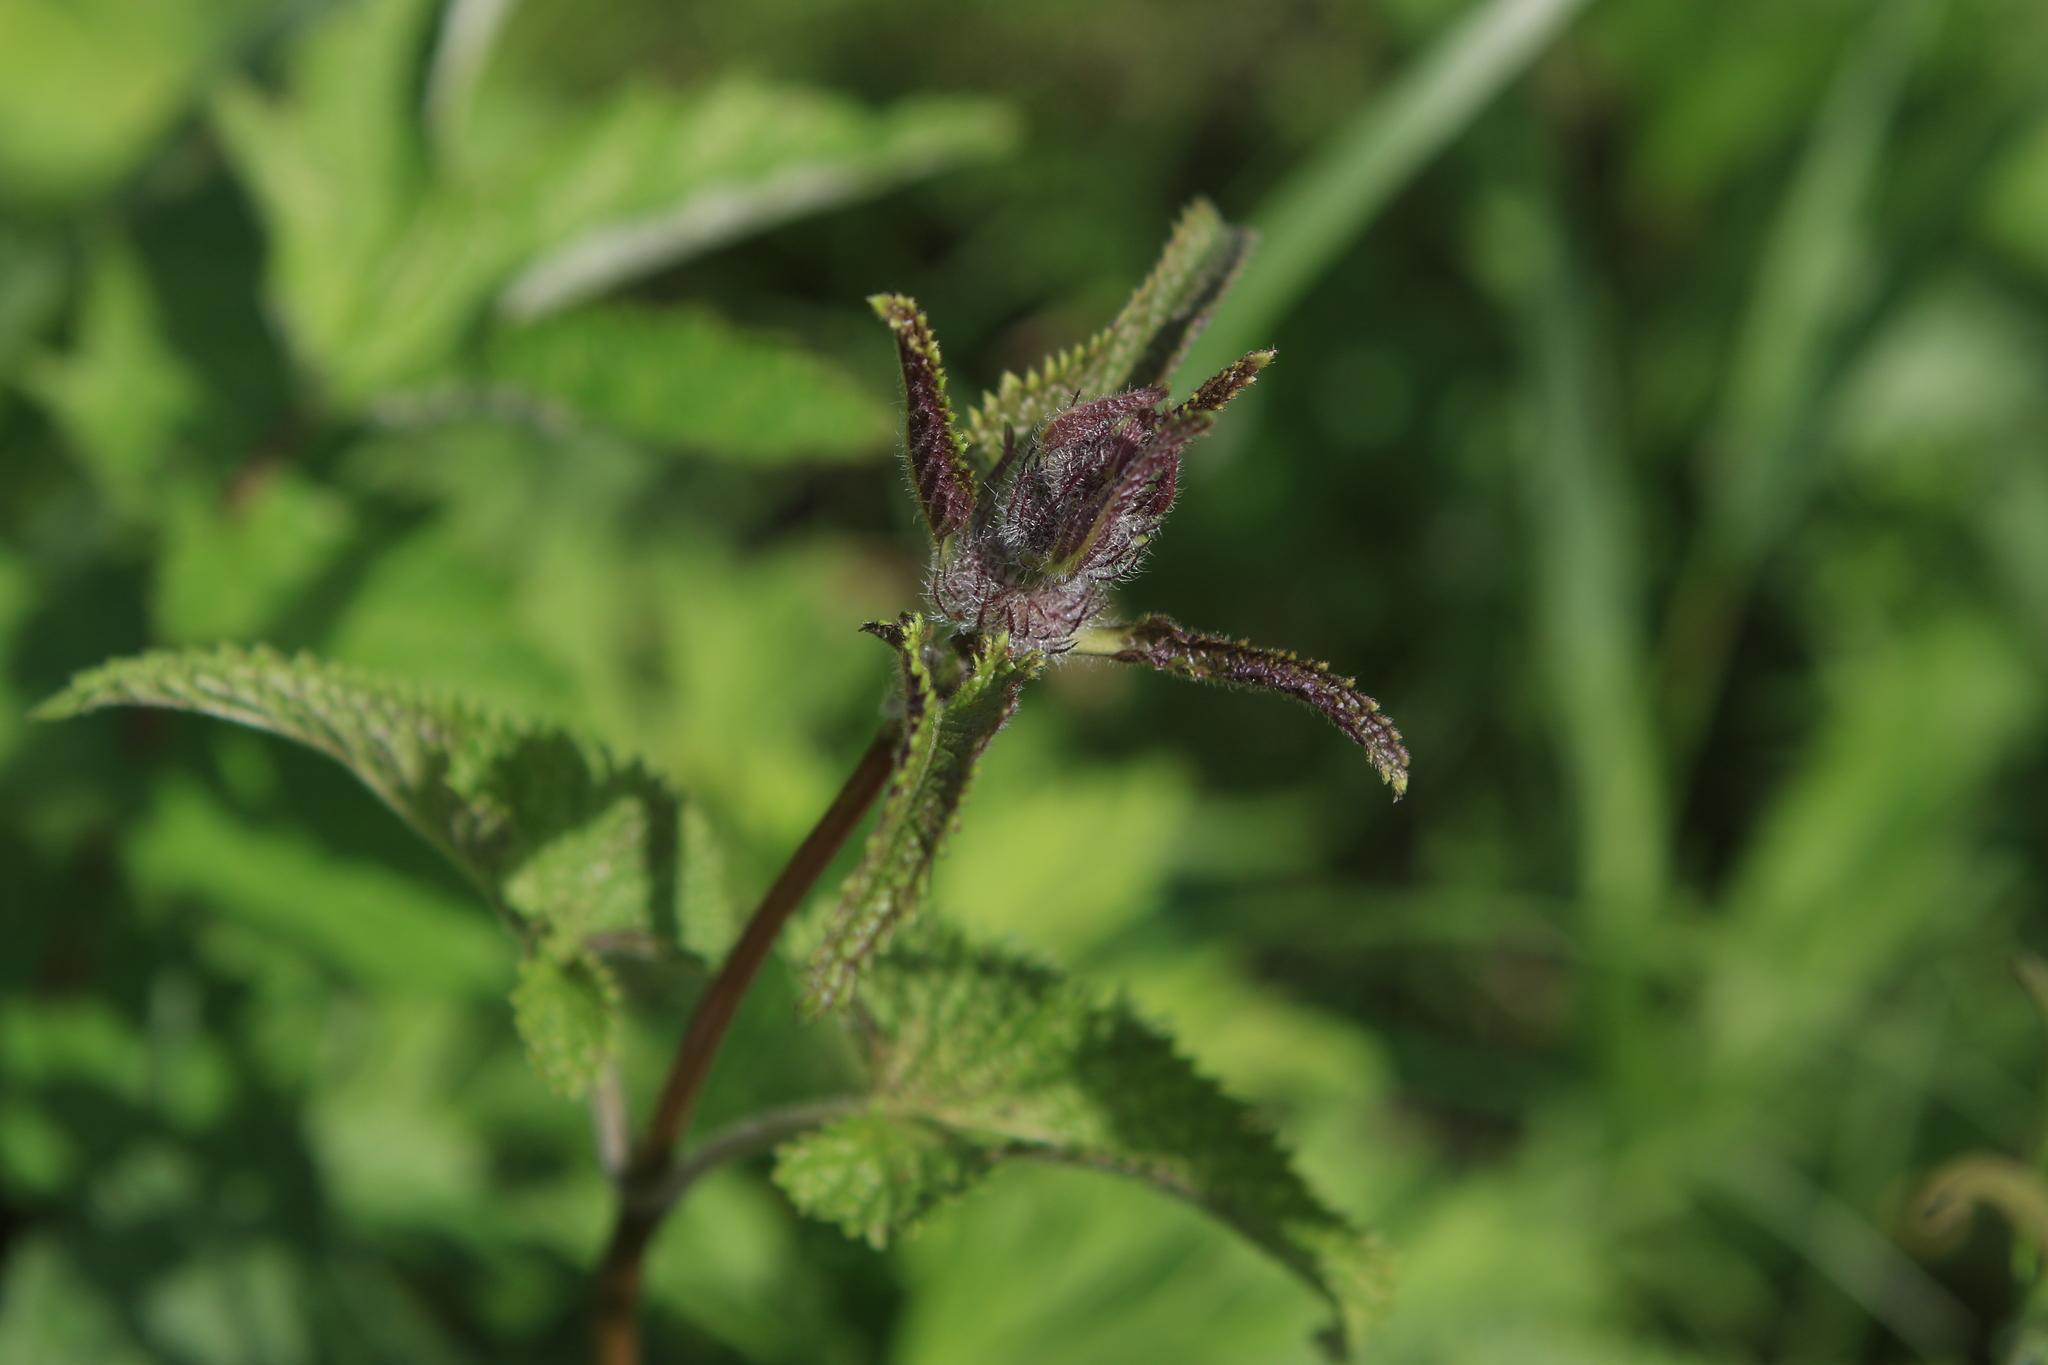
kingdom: Plantae
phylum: Tracheophyta
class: Magnoliopsida
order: Lamiales
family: Lamiaceae
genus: Phlomoides
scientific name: Phlomoides tuberosa
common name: Tuberous jerusalem sage
